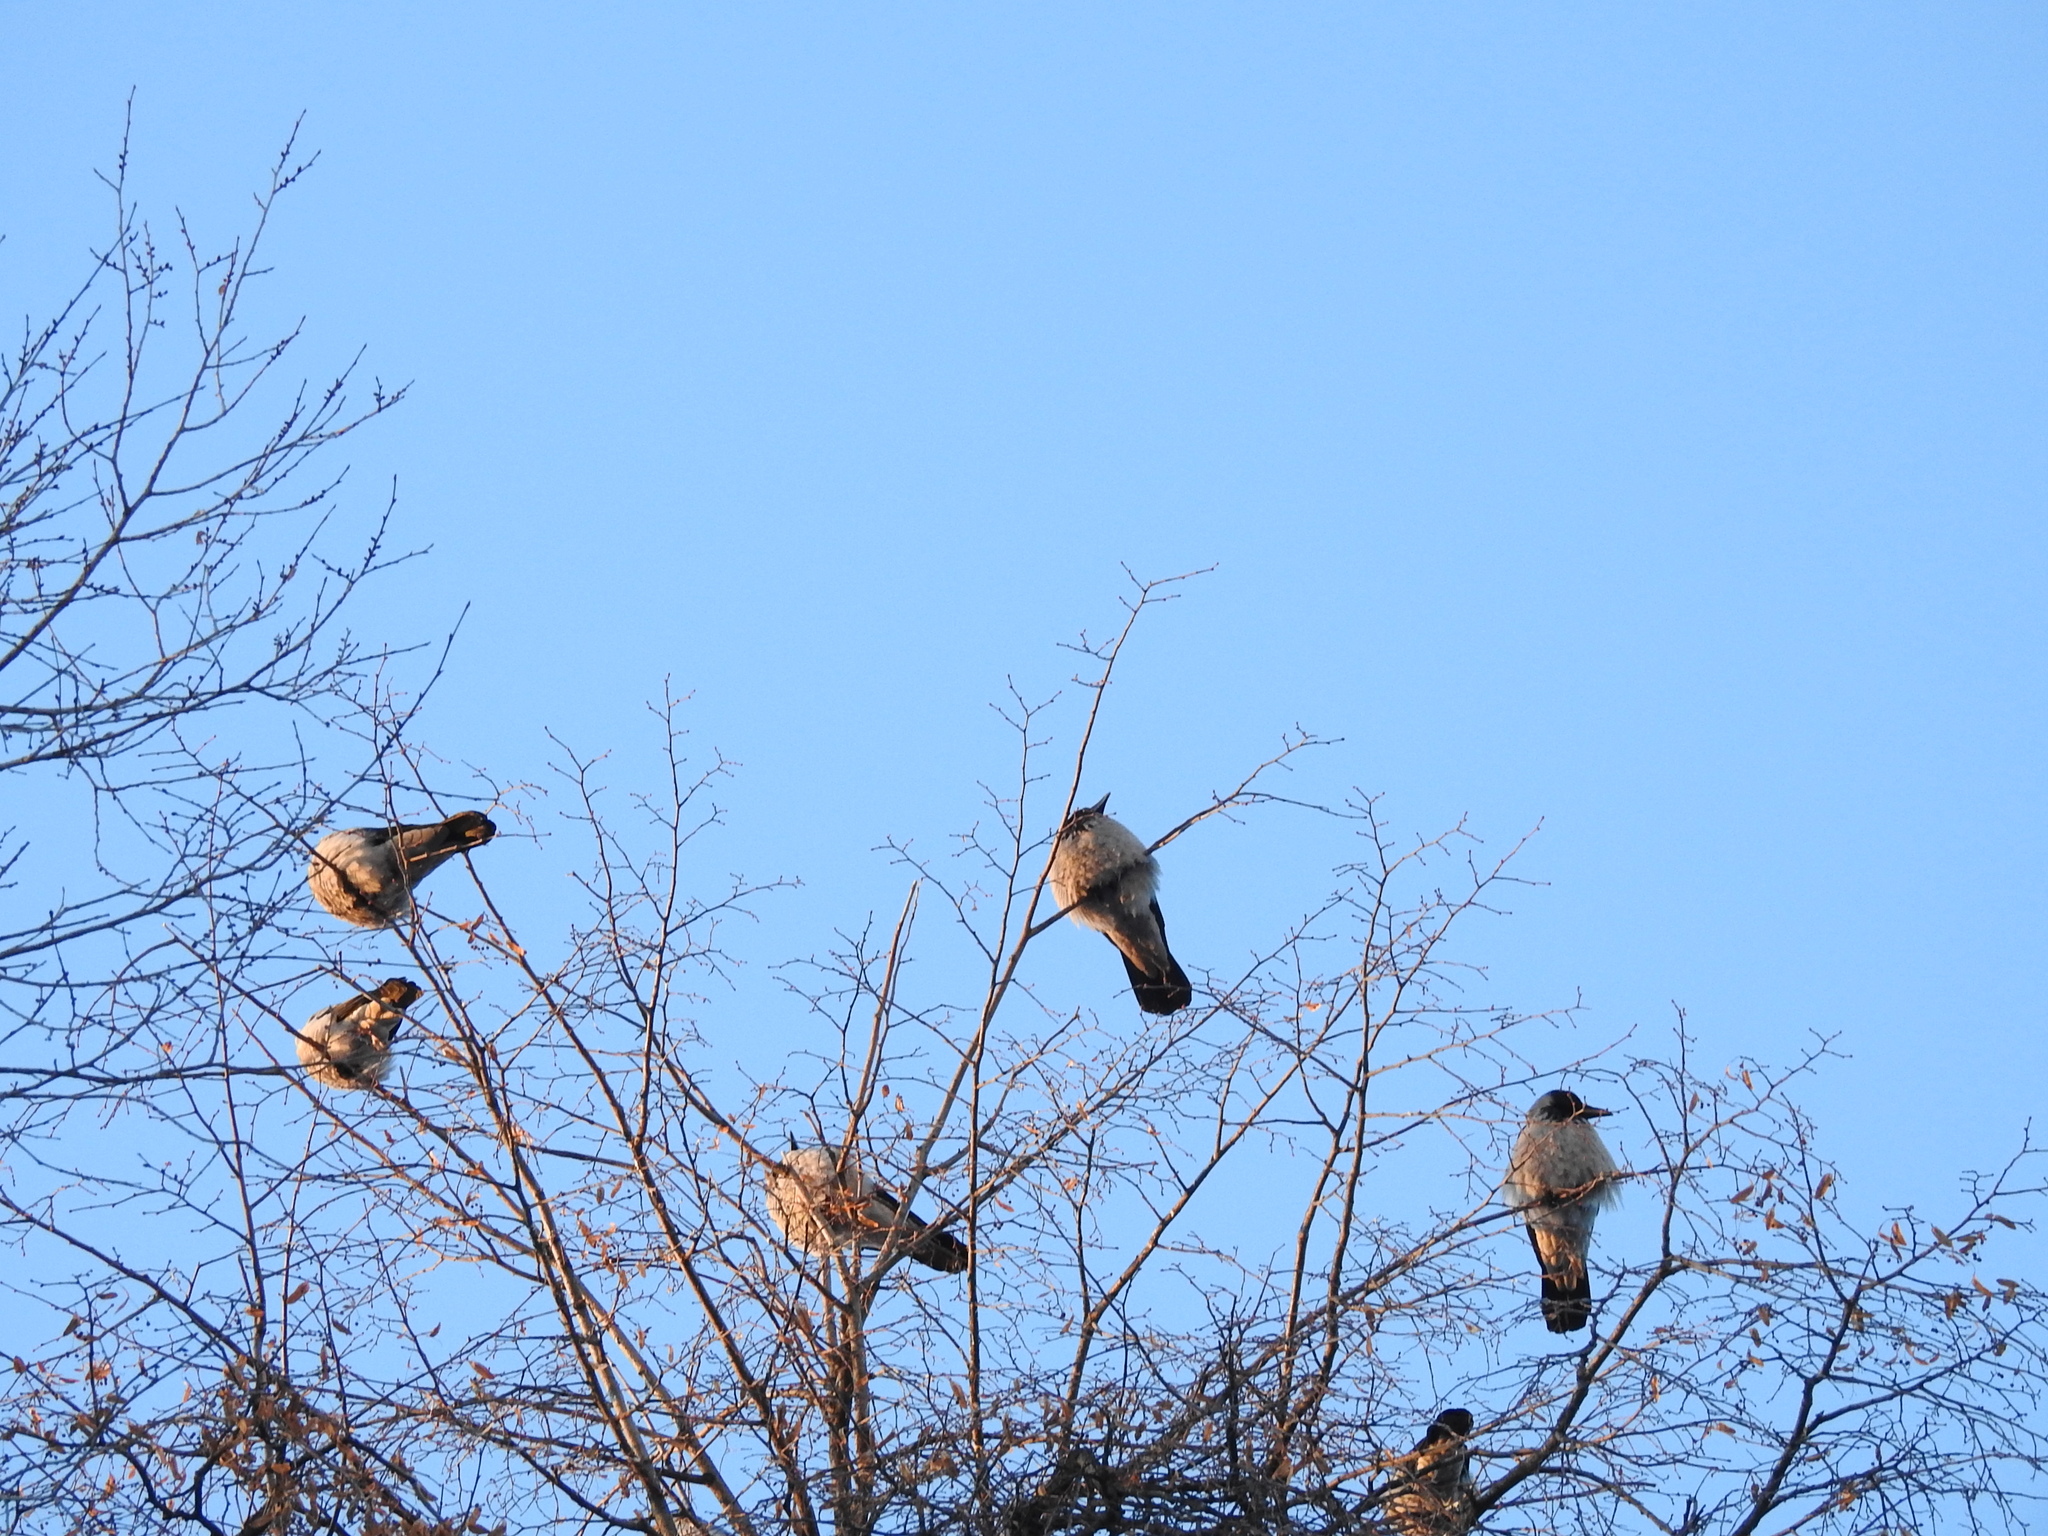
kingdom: Animalia
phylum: Chordata
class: Aves
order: Passeriformes
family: Corvidae
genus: Corvus
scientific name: Corvus cornix
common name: Hooded crow
